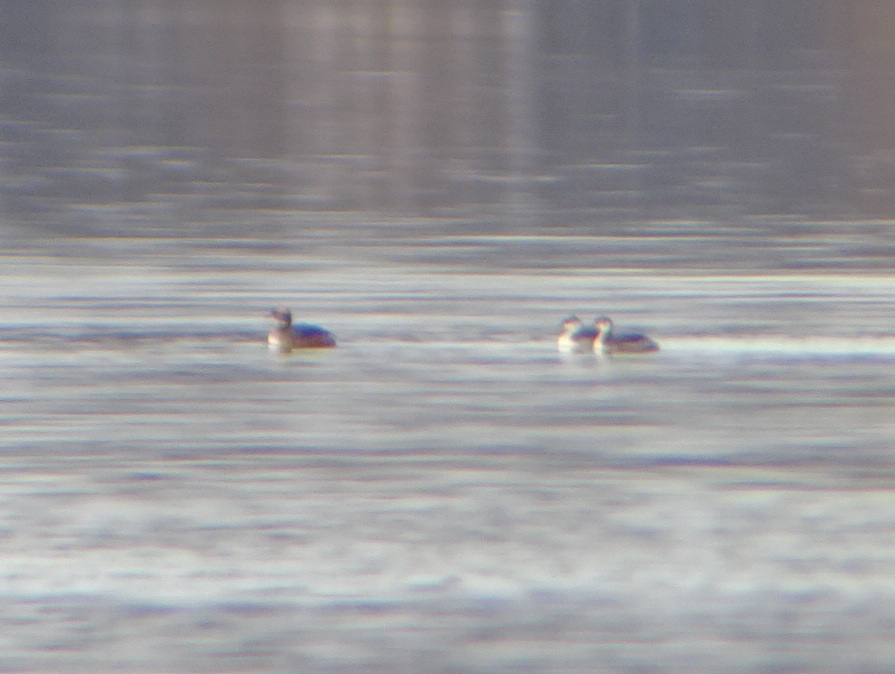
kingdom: Animalia
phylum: Chordata
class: Aves
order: Podicipediformes
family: Podicipedidae
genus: Podiceps
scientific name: Podiceps auritus
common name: Horned grebe
